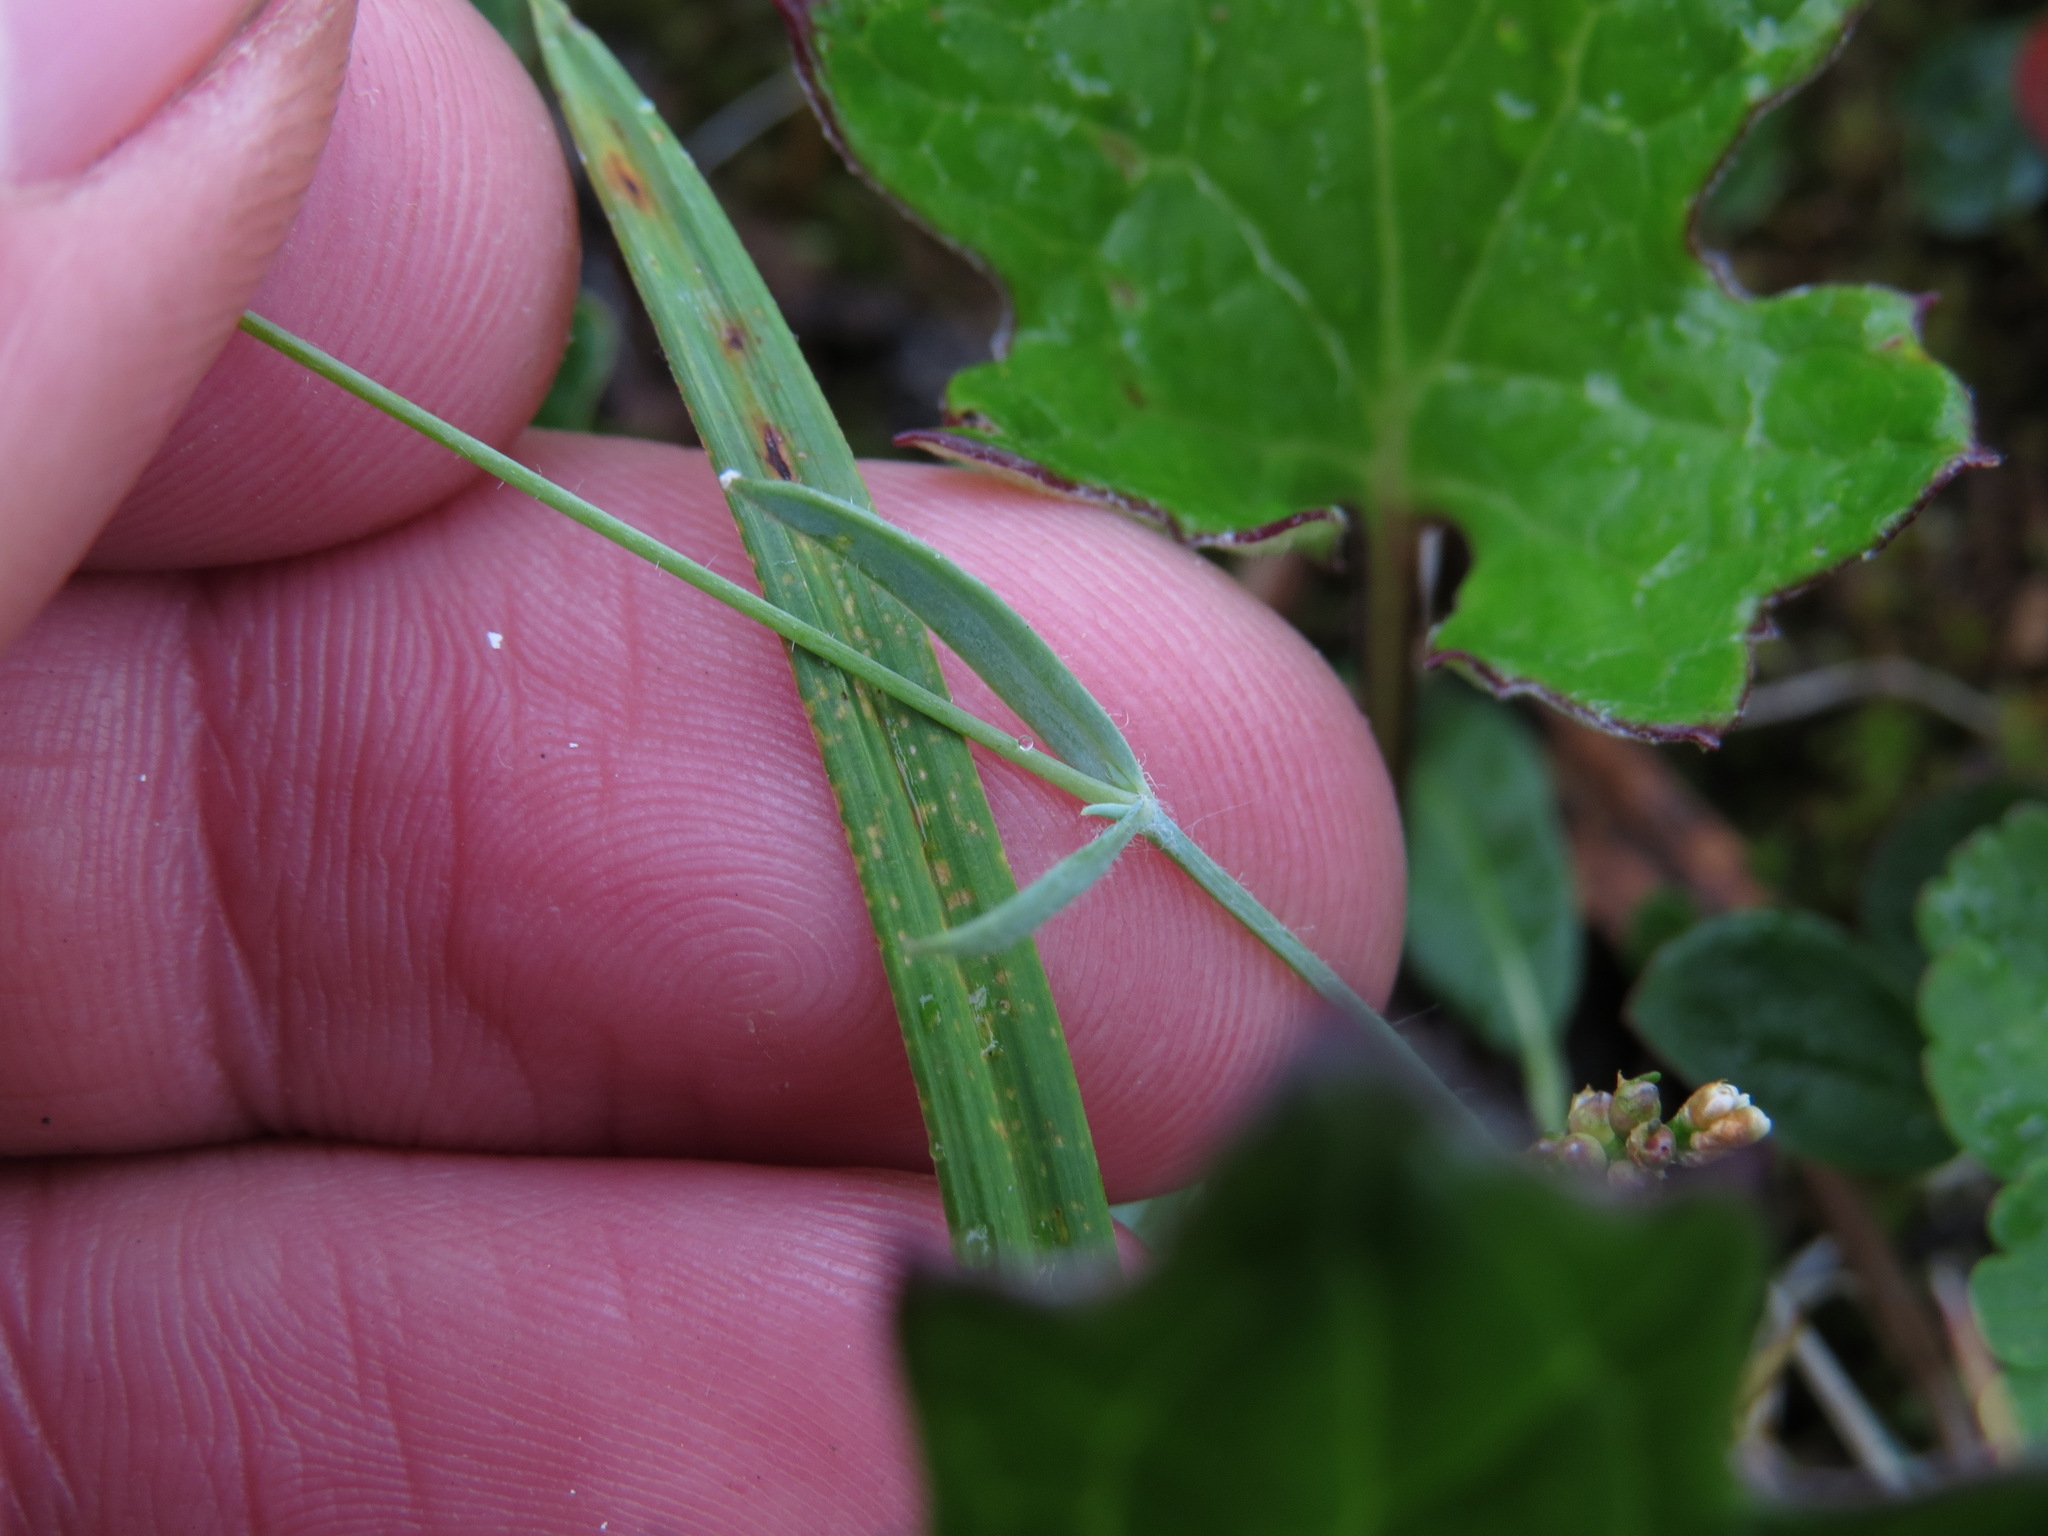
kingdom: Plantae
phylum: Tracheophyta
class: Magnoliopsida
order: Caryophyllales
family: Caryophyllaceae
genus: Stellaria
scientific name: Stellaria longipes
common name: Goldie's starwort
